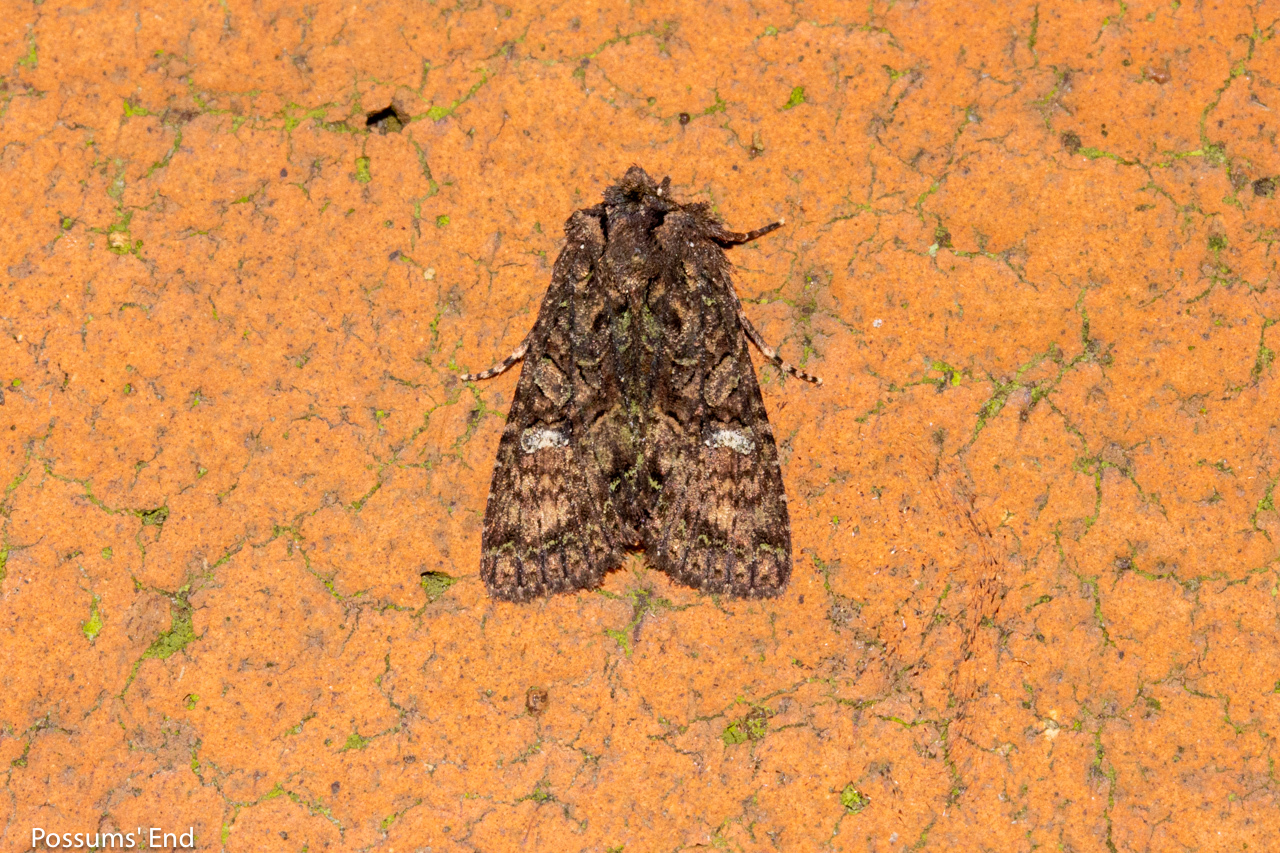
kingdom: Animalia
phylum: Arthropoda
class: Insecta
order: Lepidoptera
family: Noctuidae
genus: Meterana
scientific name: Meterana ochthistis
